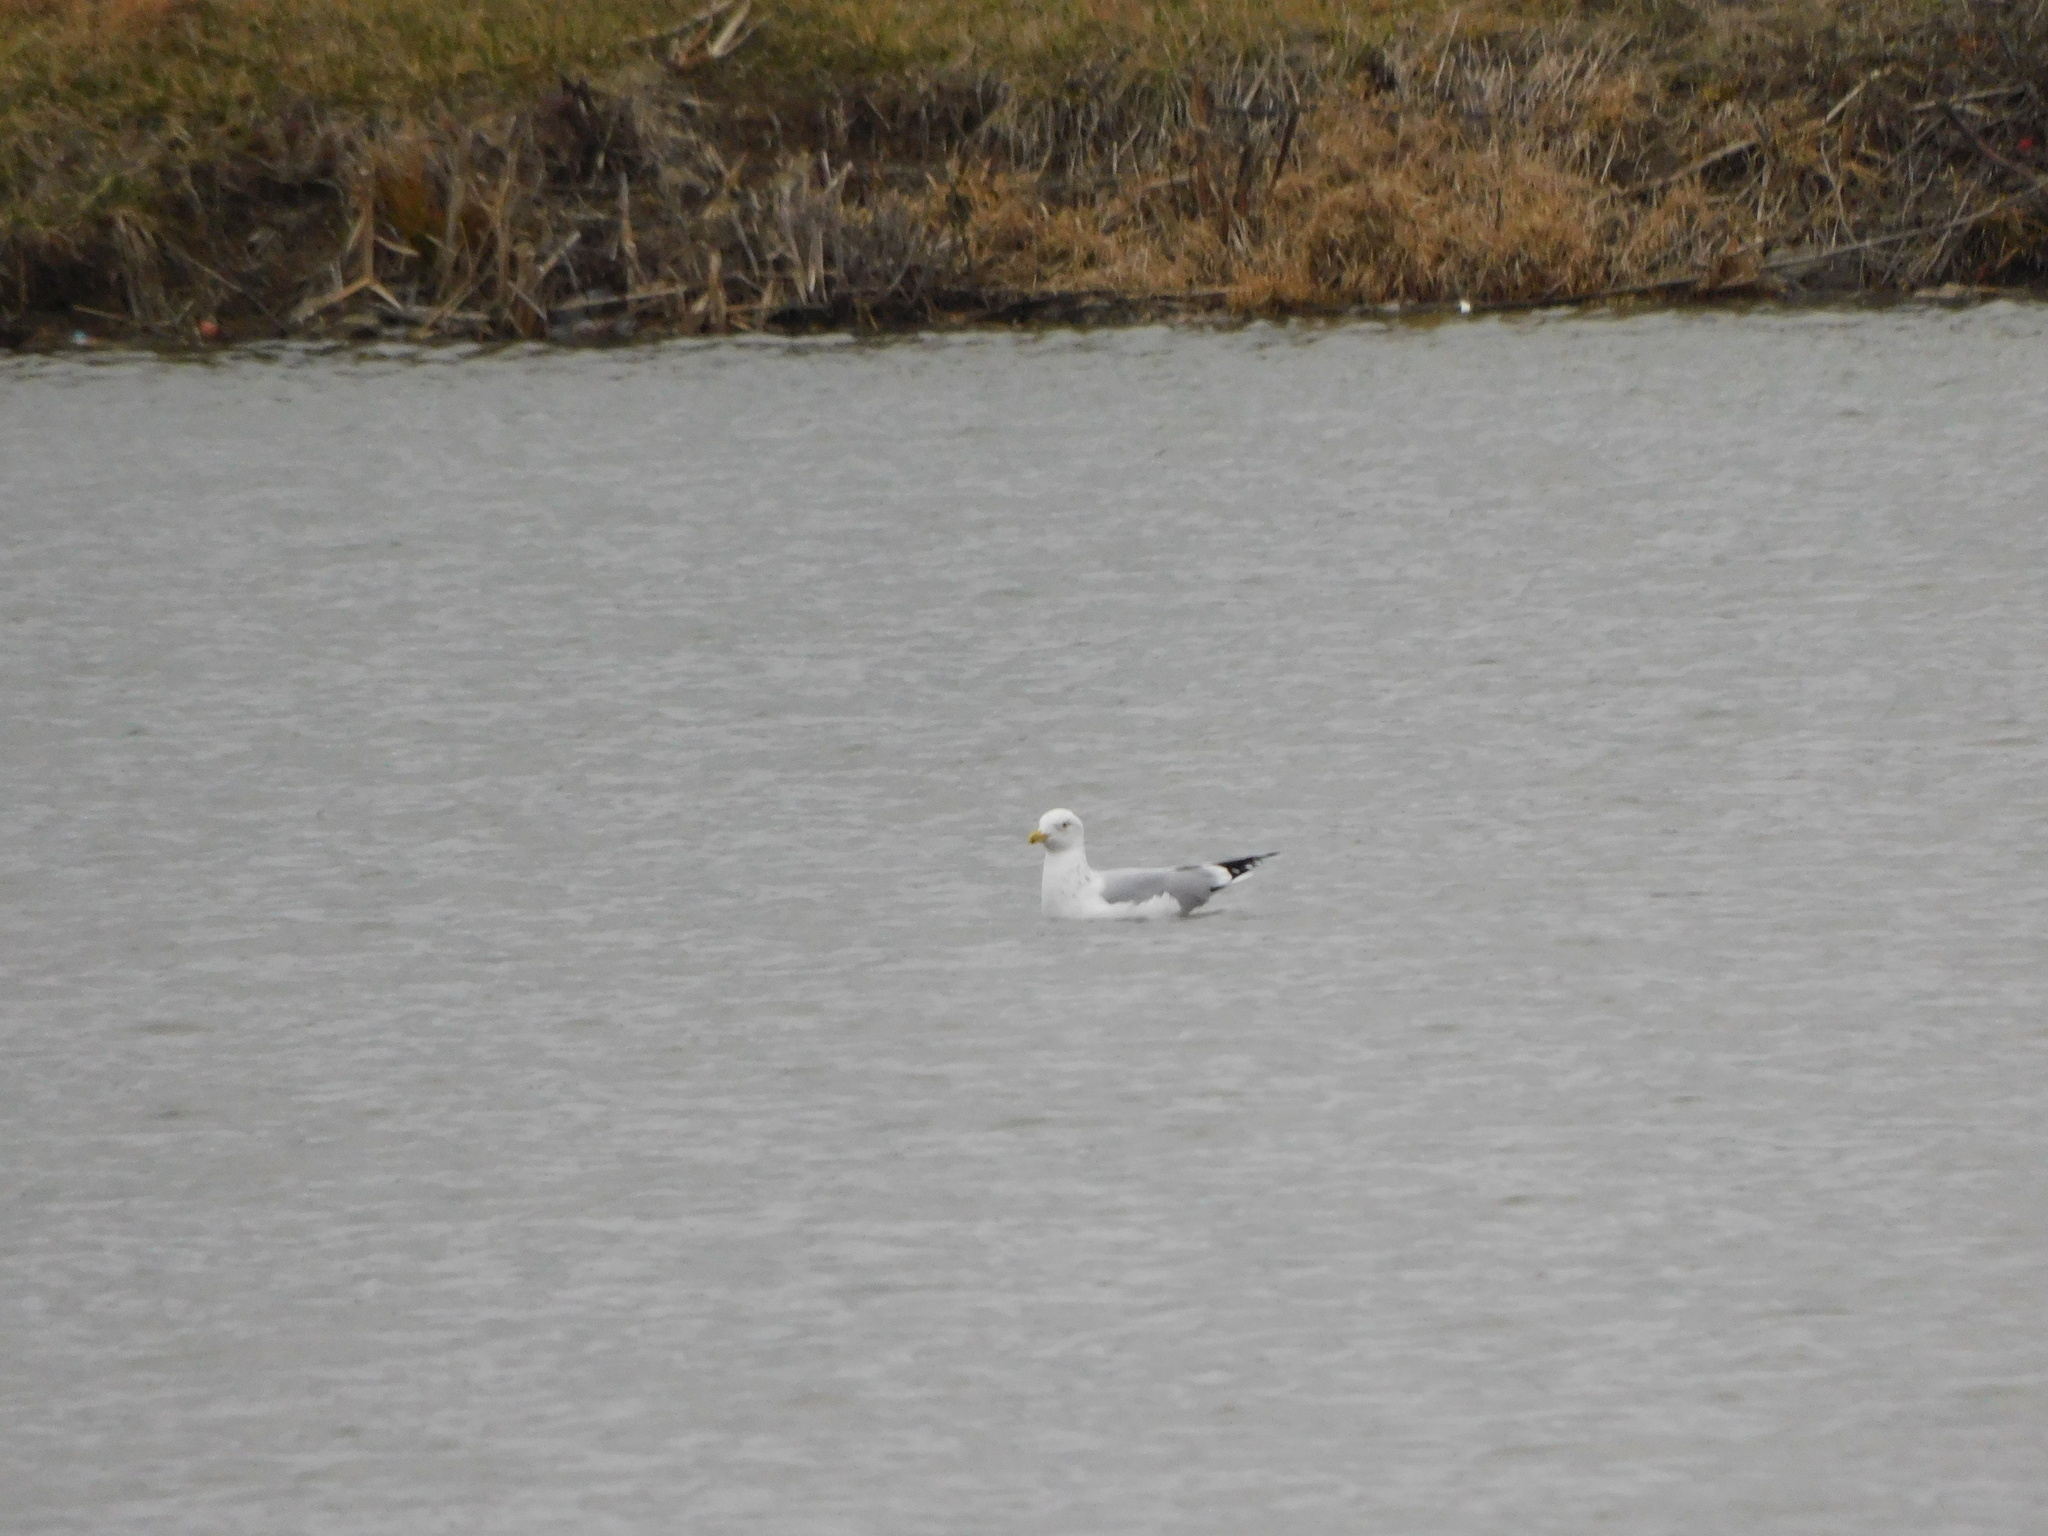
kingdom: Animalia
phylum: Chordata
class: Aves
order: Charadriiformes
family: Laridae
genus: Larus
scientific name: Larus smithsonianus
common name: American herring gull
